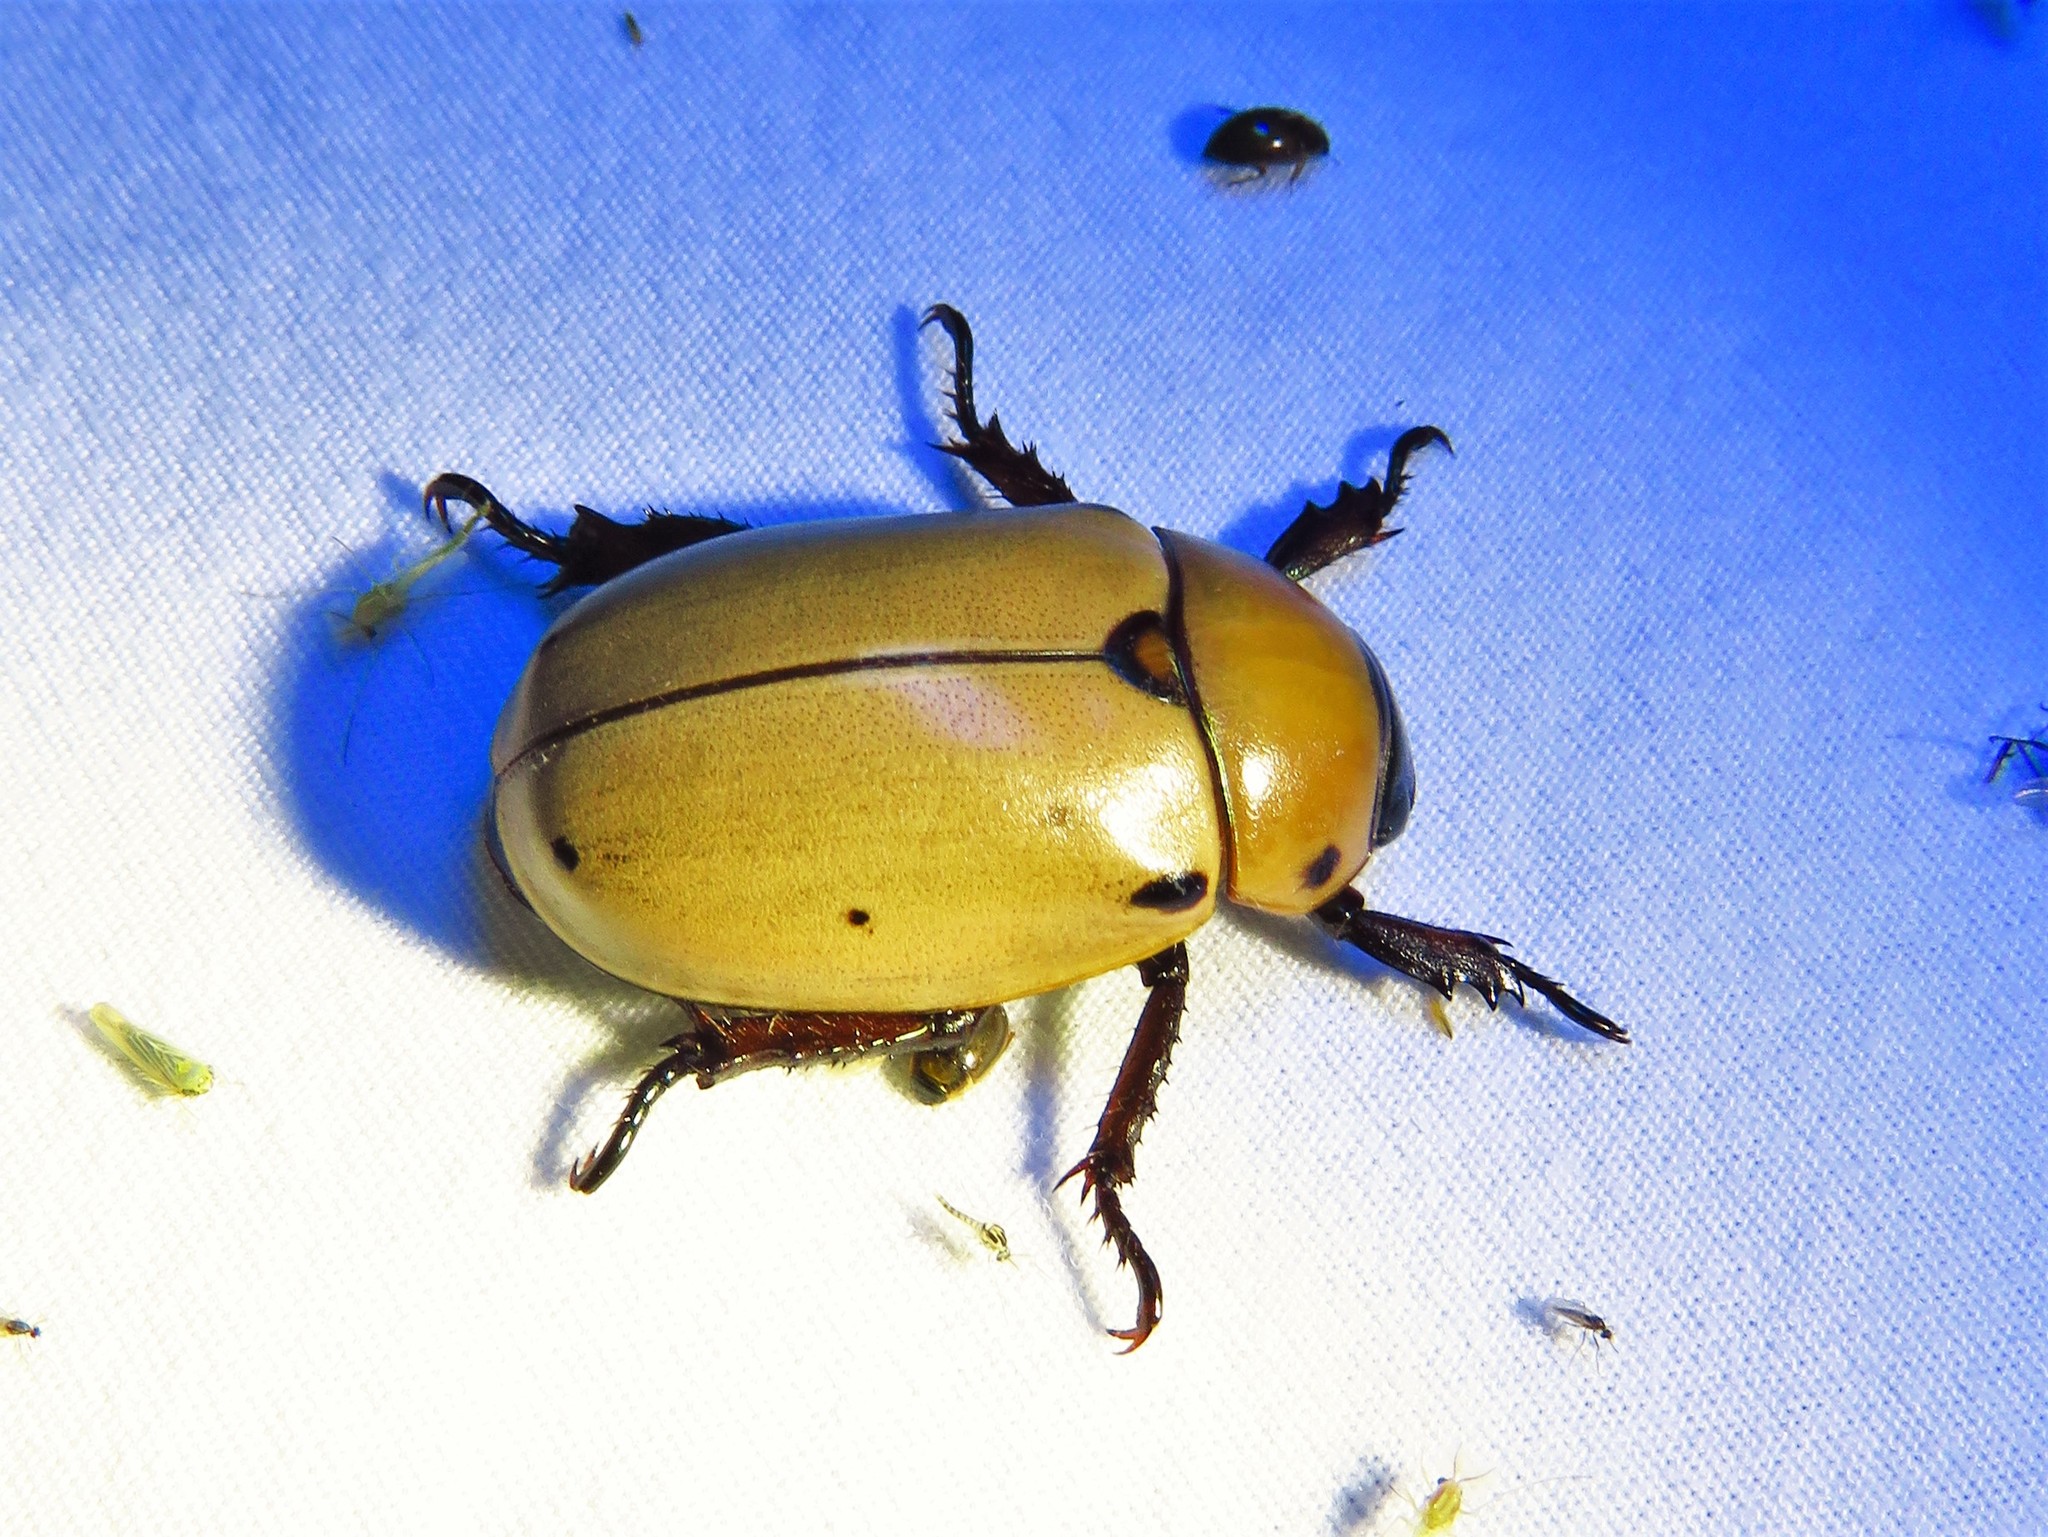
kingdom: Animalia
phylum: Arthropoda
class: Insecta
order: Coleoptera
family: Scarabaeidae
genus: Pelidnota
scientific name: Pelidnota punctata
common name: Grapevine beetle
